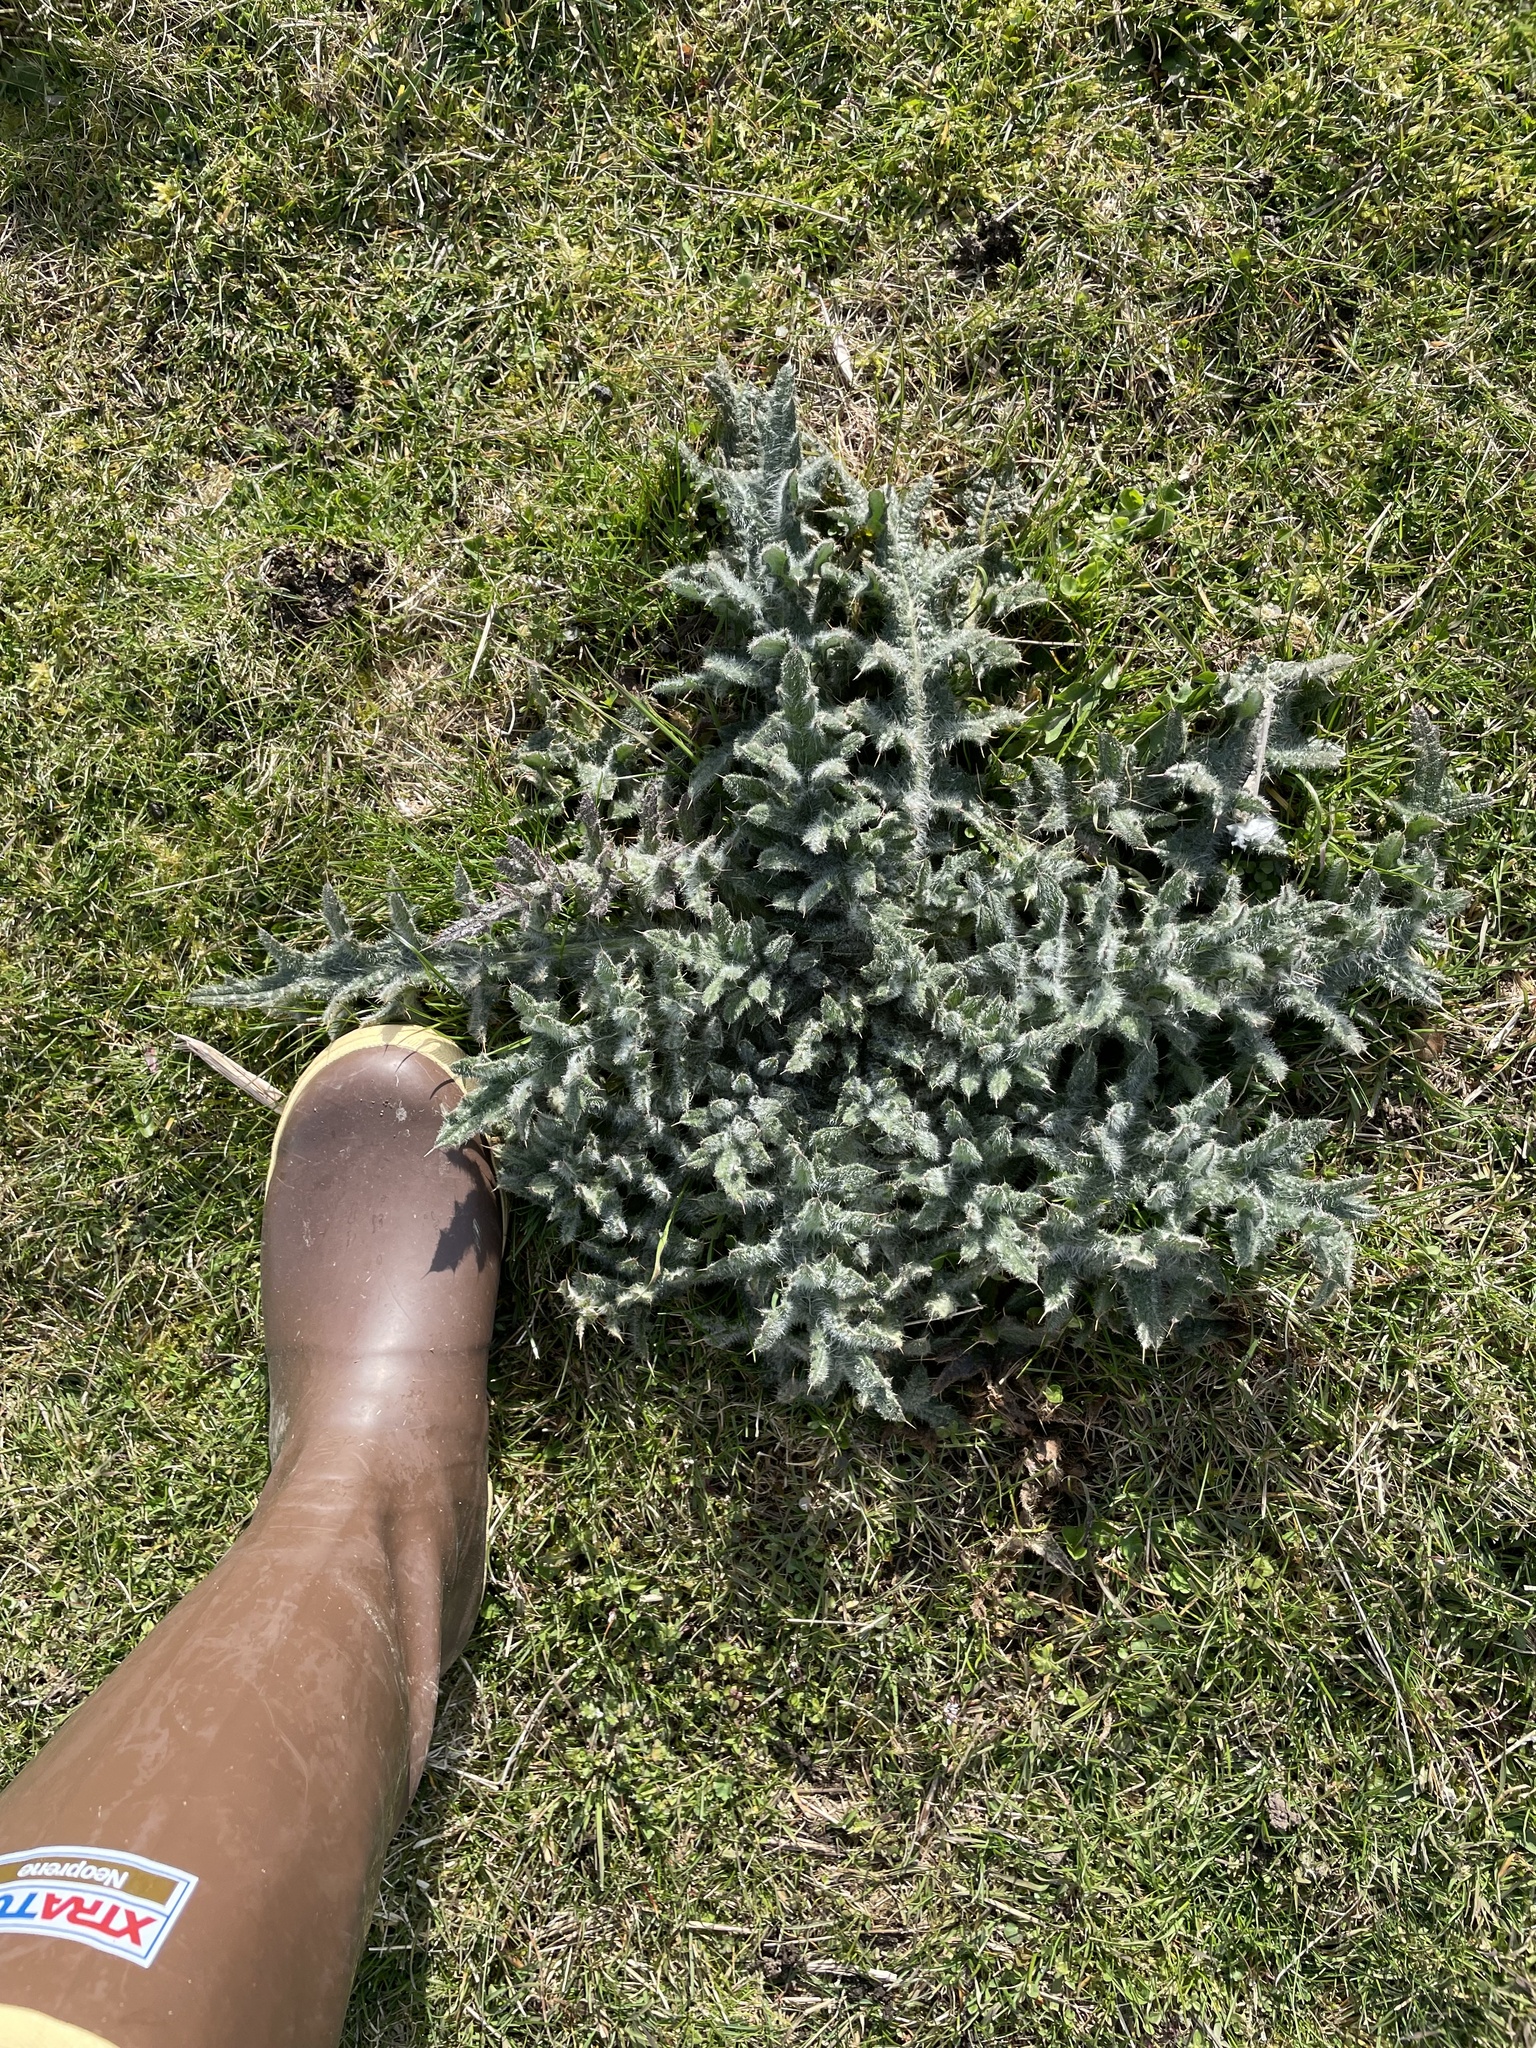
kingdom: Plantae
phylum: Tracheophyta
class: Magnoliopsida
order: Asterales
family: Asteraceae
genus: Cirsium
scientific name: Cirsium vulgare
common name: Bull thistle
